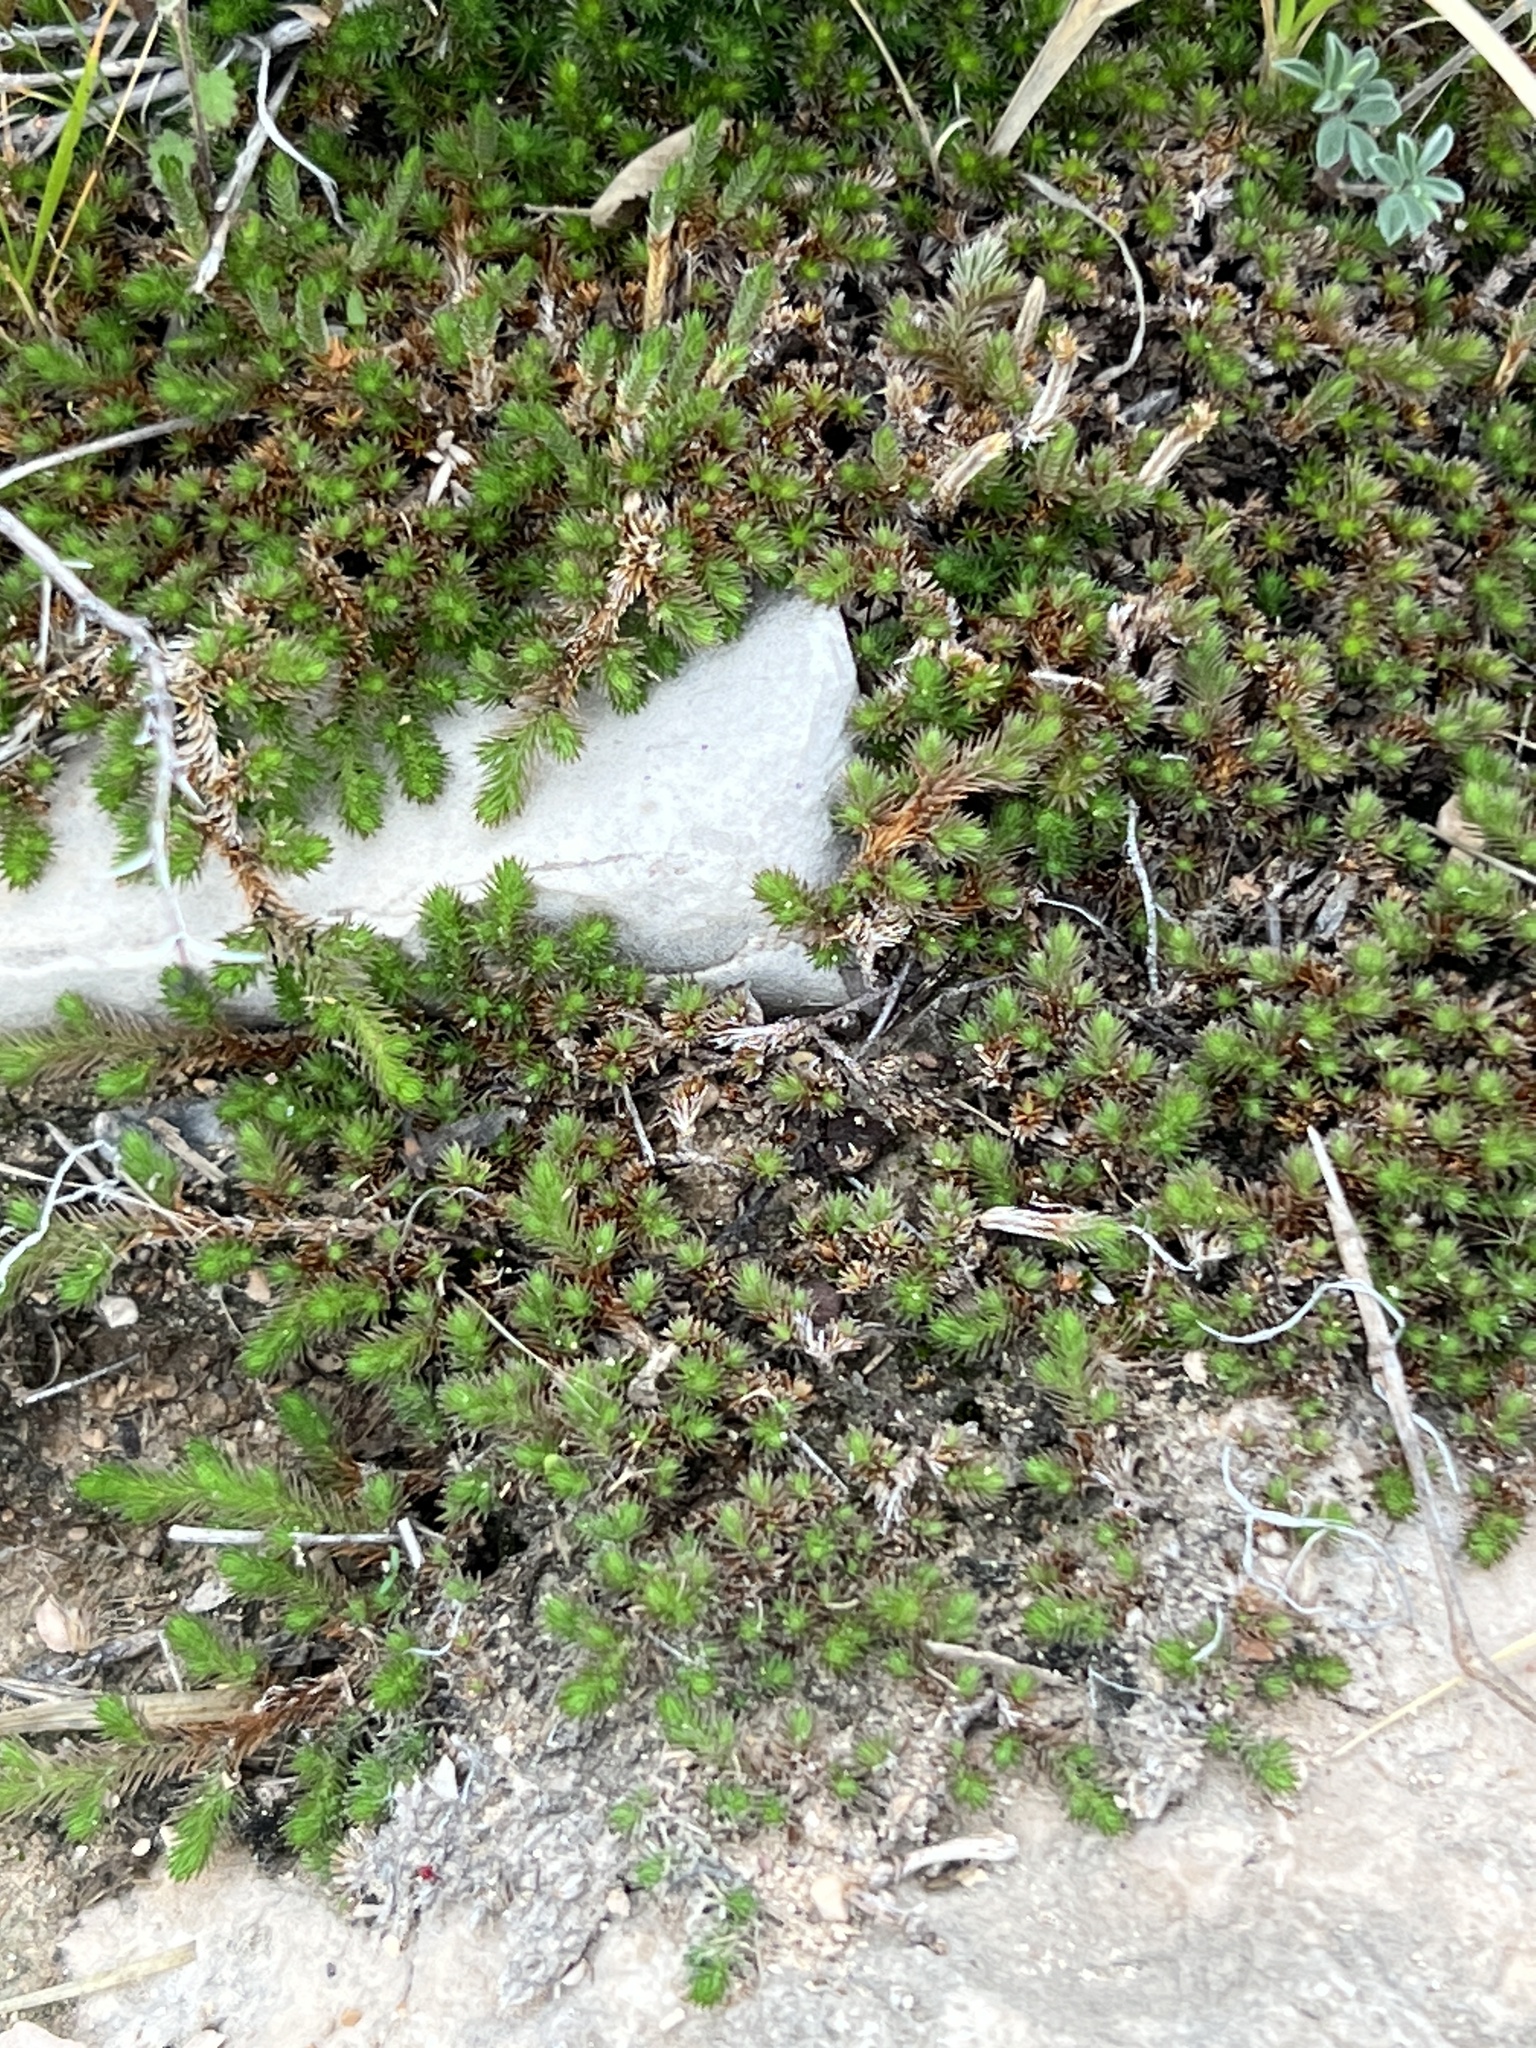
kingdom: Plantae
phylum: Tracheophyta
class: Lycopodiopsida
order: Selaginellales
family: Selaginellaceae
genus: Selaginella
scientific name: Selaginella wrightii
